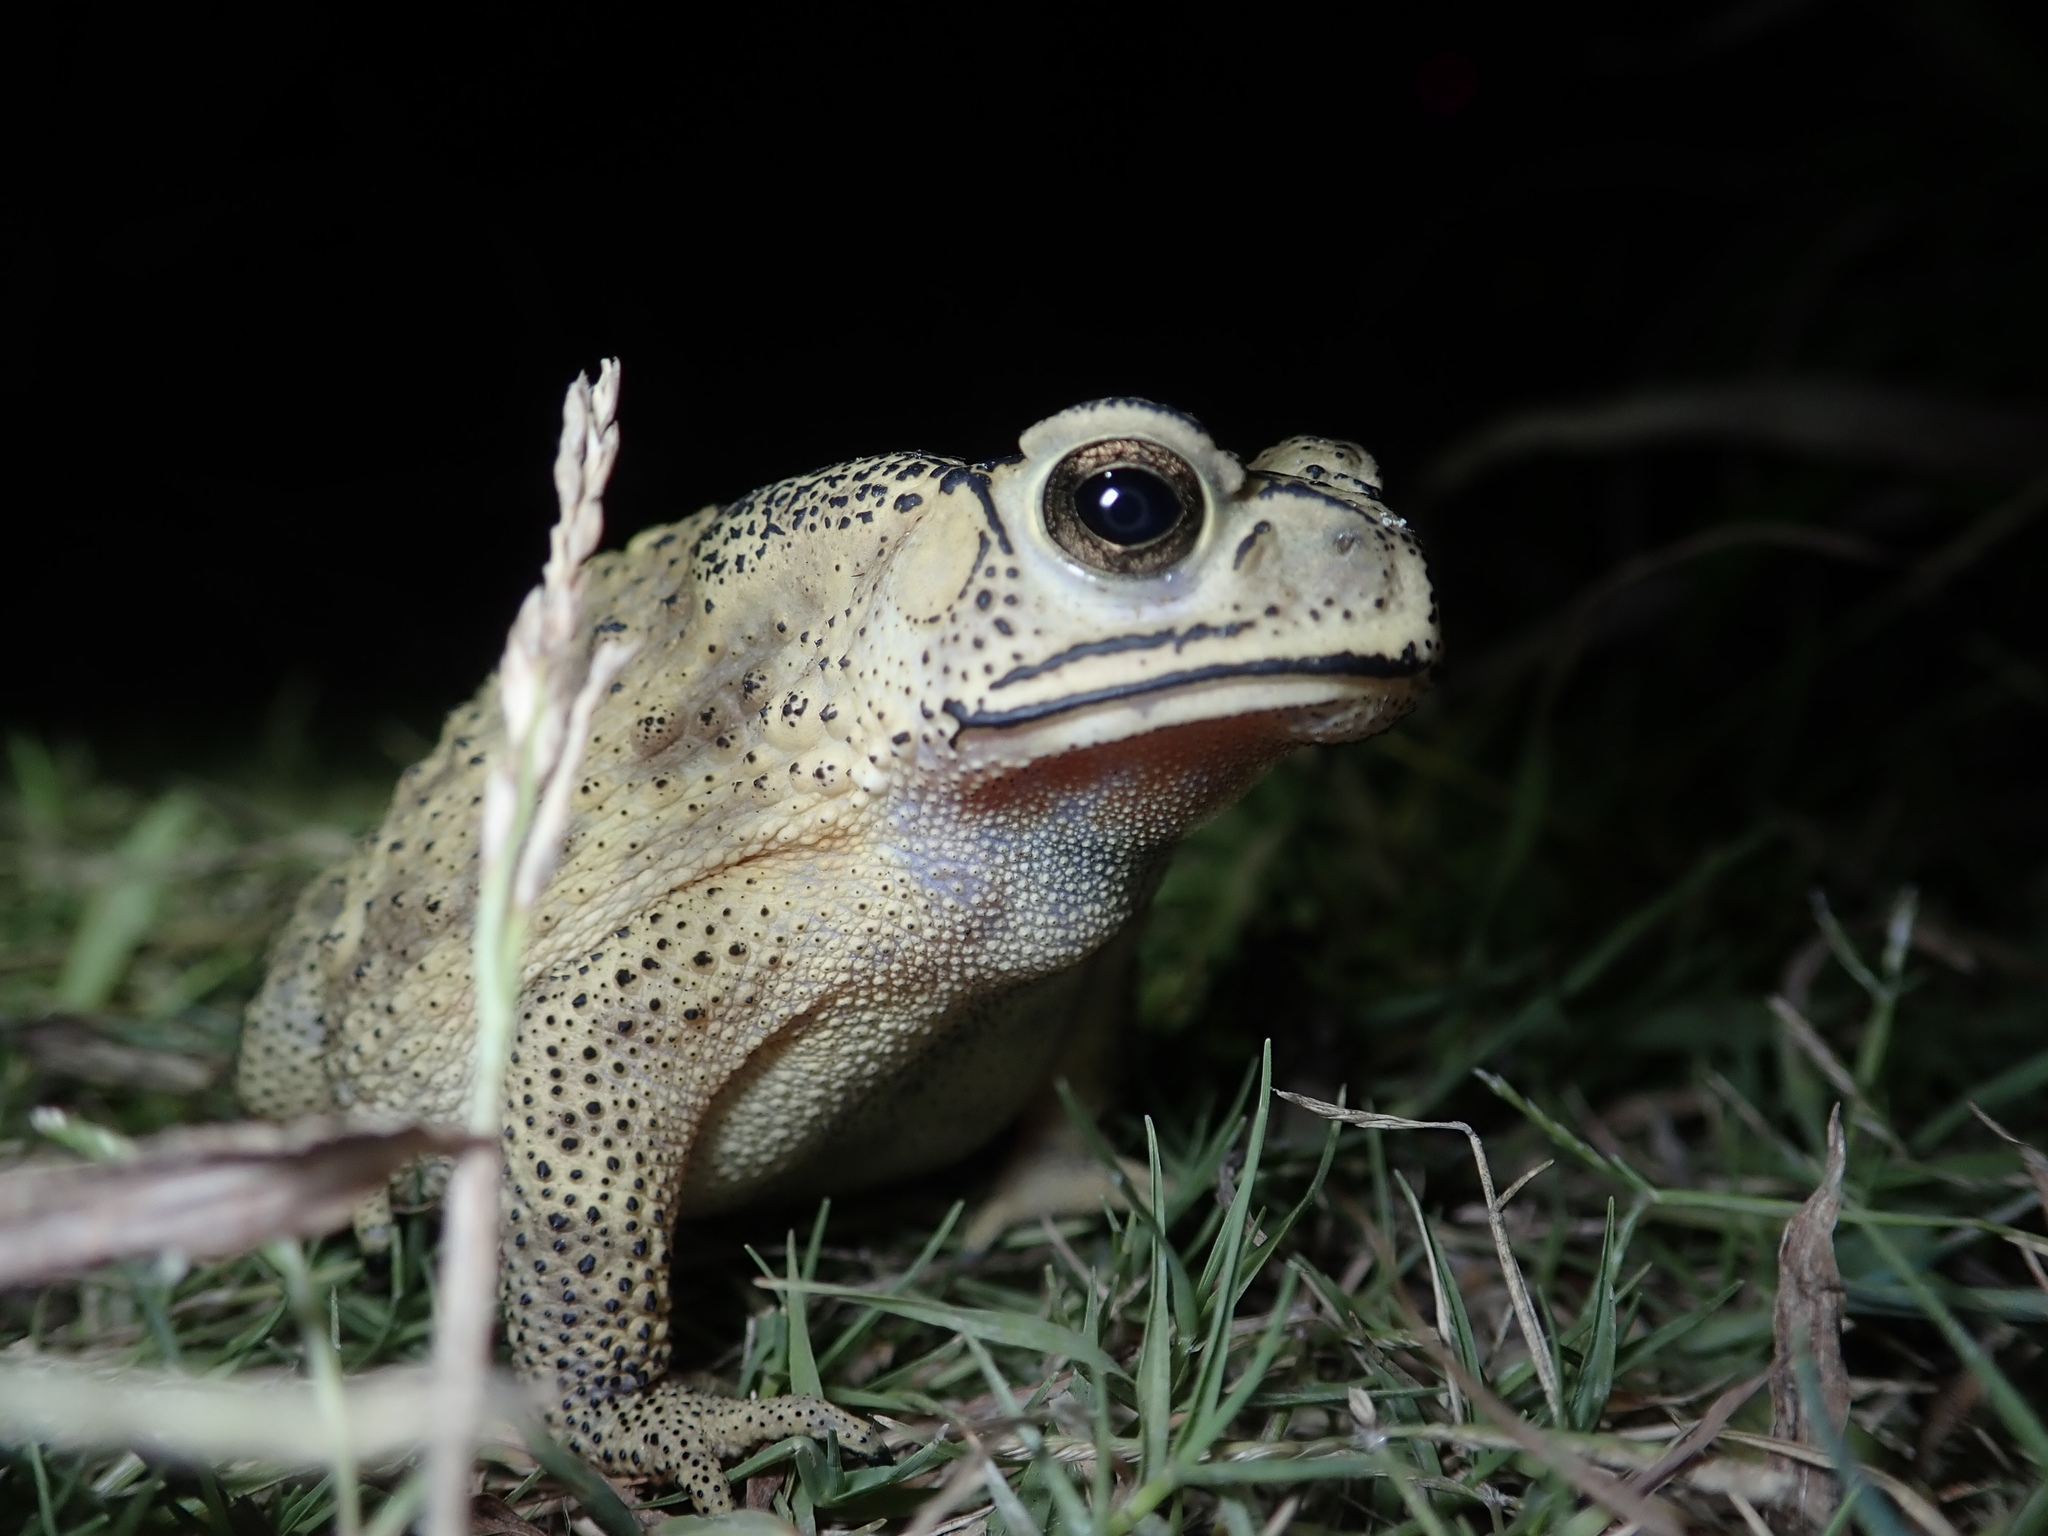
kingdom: Animalia
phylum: Chordata
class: Amphibia
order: Anura
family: Bufonidae
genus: Duttaphrynus
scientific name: Duttaphrynus melanostictus
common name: Common sunda toad
